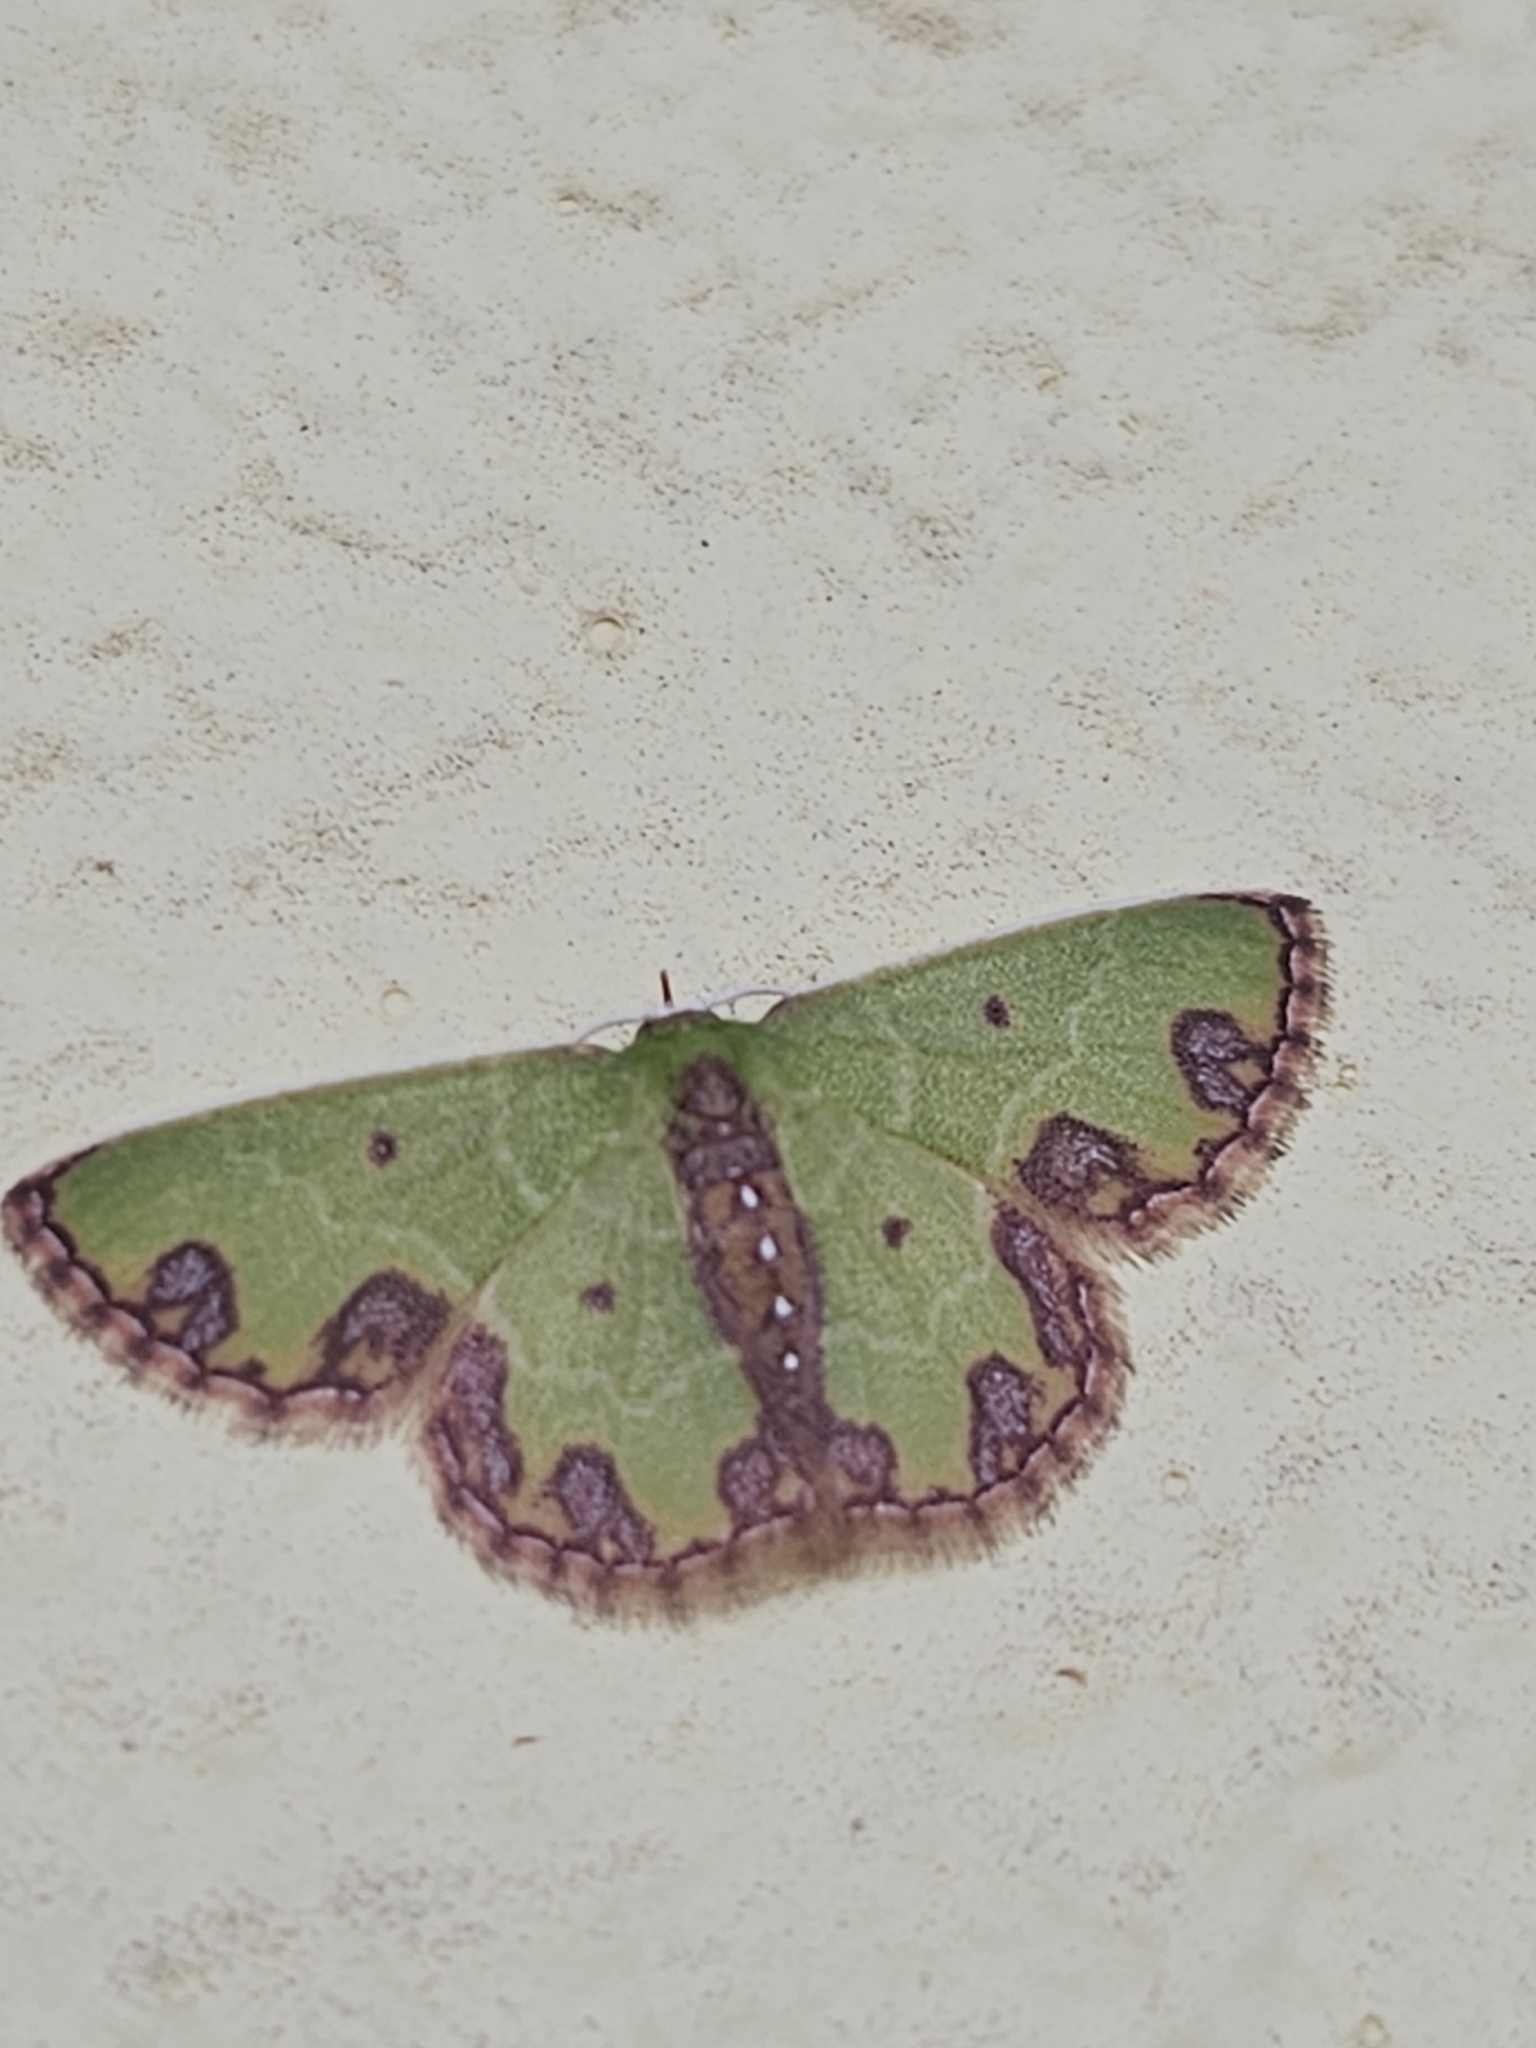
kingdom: Animalia
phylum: Arthropoda
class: Insecta
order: Lepidoptera
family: Geometridae
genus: Synchlora
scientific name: Synchlora gerularia
